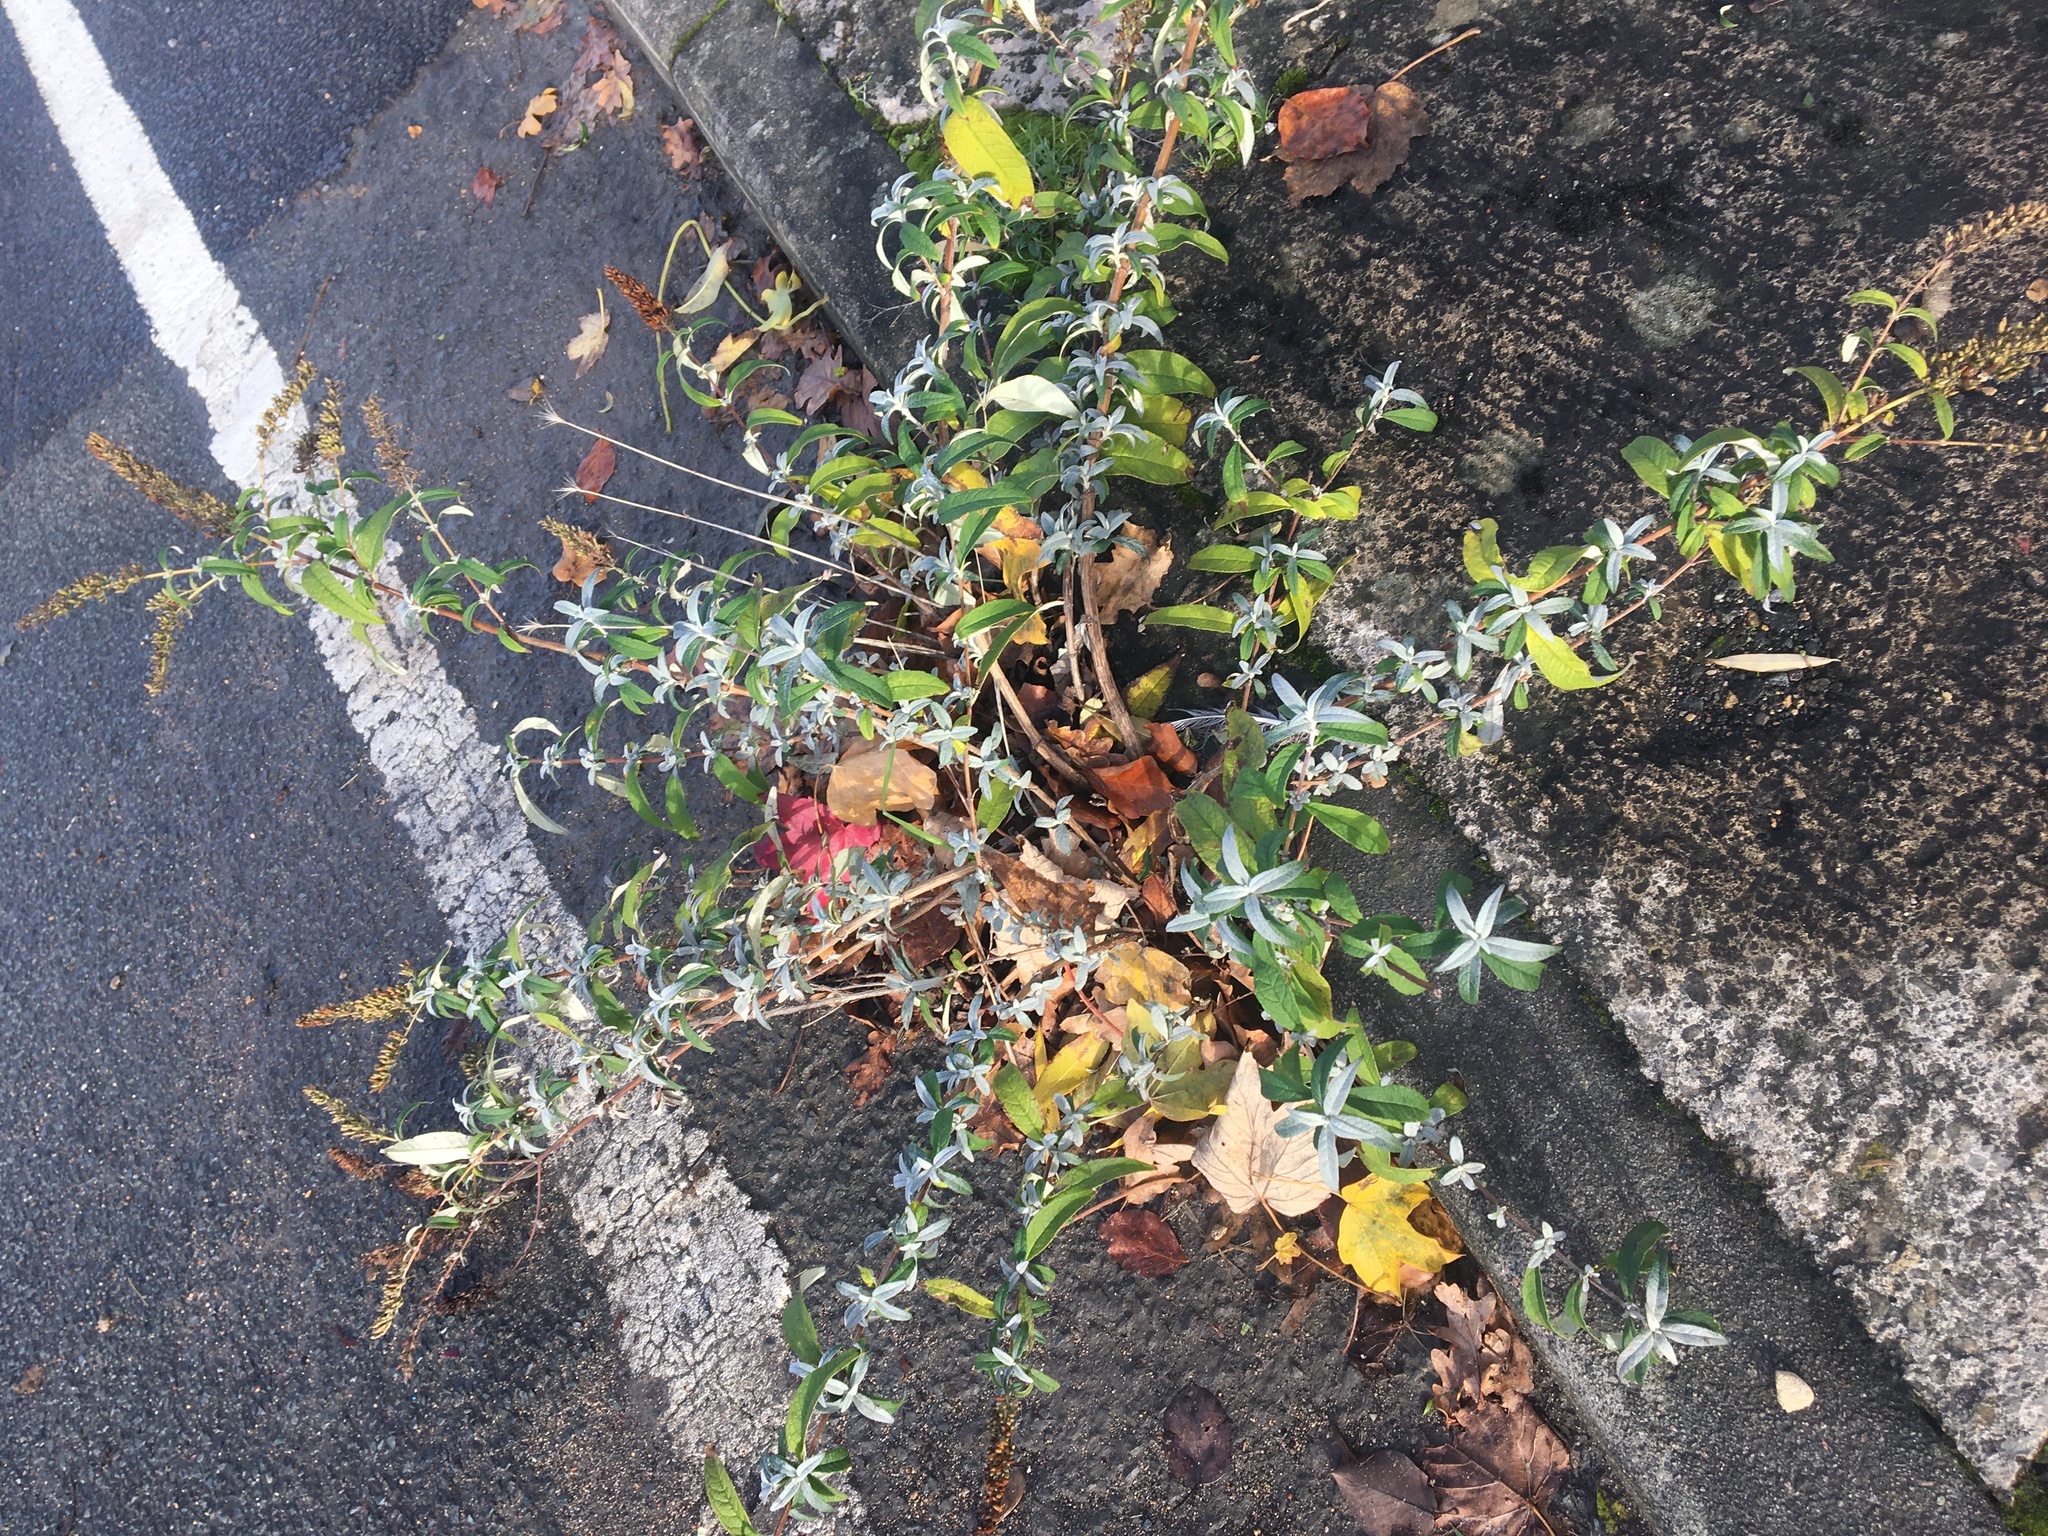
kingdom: Plantae
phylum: Tracheophyta
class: Magnoliopsida
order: Lamiales
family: Scrophulariaceae
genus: Buddleja
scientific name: Buddleja davidii
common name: Butterfly-bush
